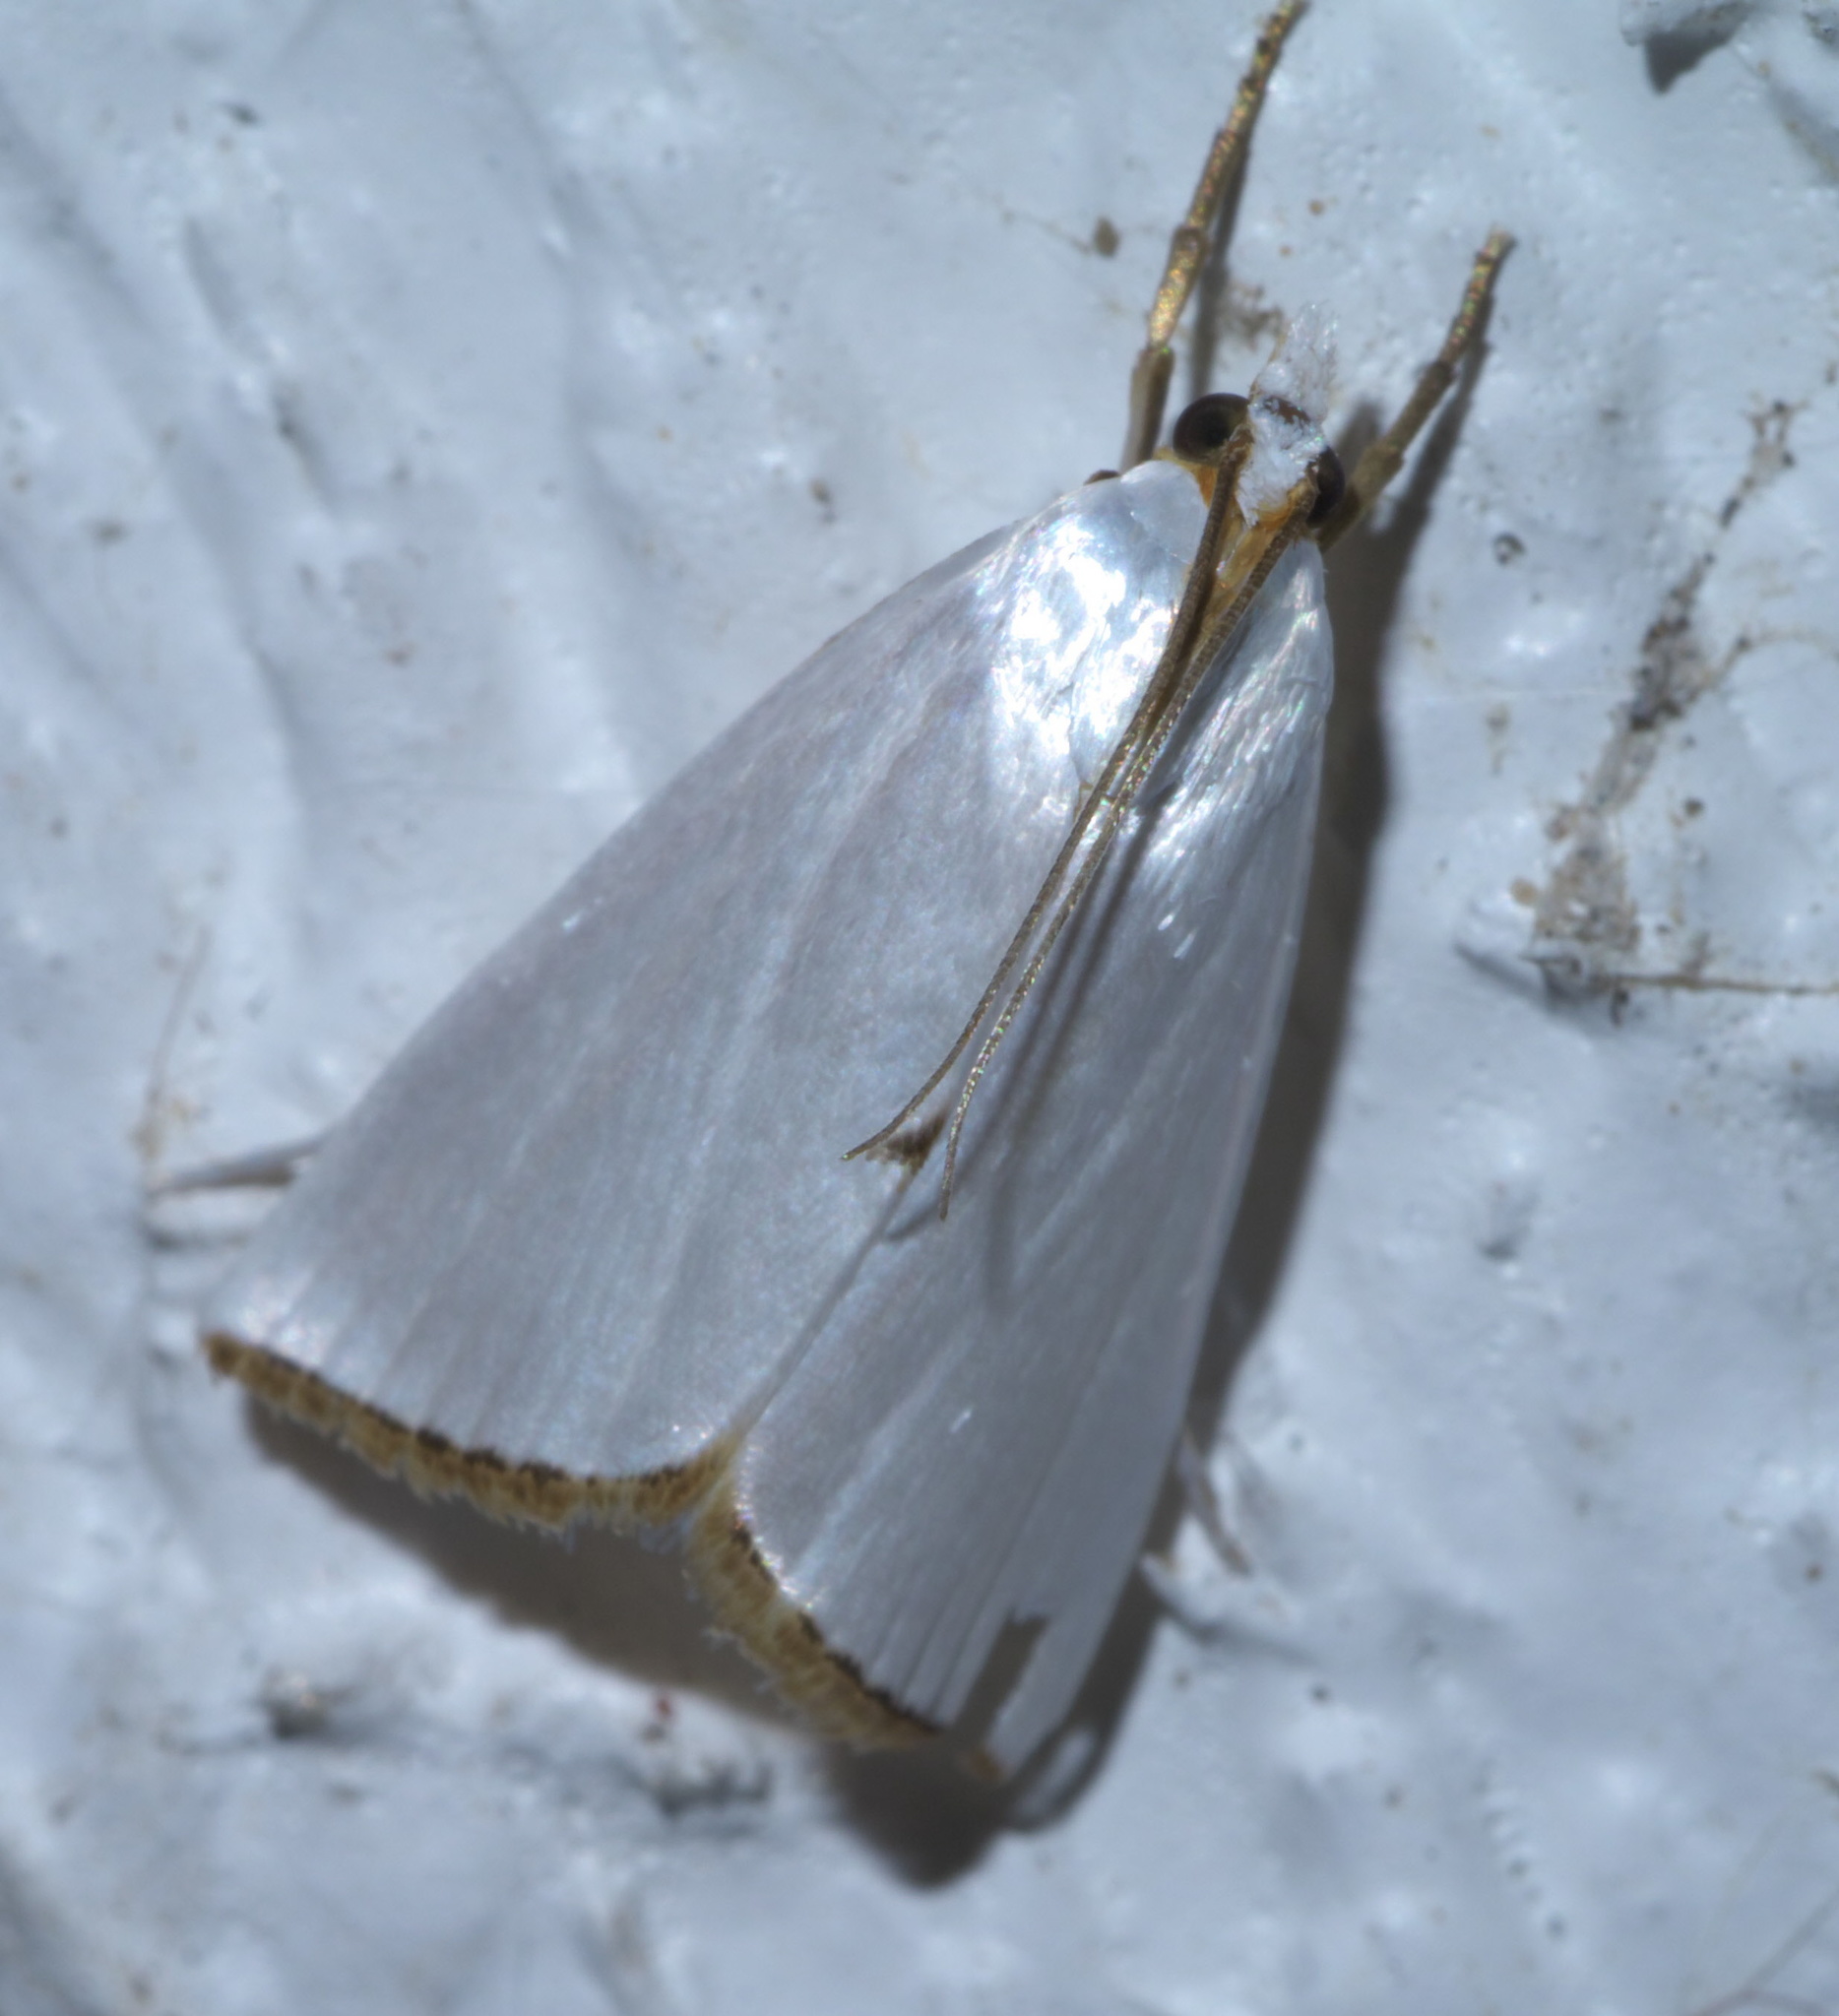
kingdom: Animalia
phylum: Arthropoda
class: Insecta
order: Lepidoptera
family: Crambidae
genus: Argyria
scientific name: Argyria nivalis
